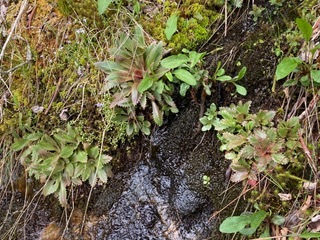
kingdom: Plantae
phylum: Tracheophyta
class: Magnoliopsida
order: Saxifragales
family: Saxifragaceae
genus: Micranthes
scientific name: Micranthes petiolaris
